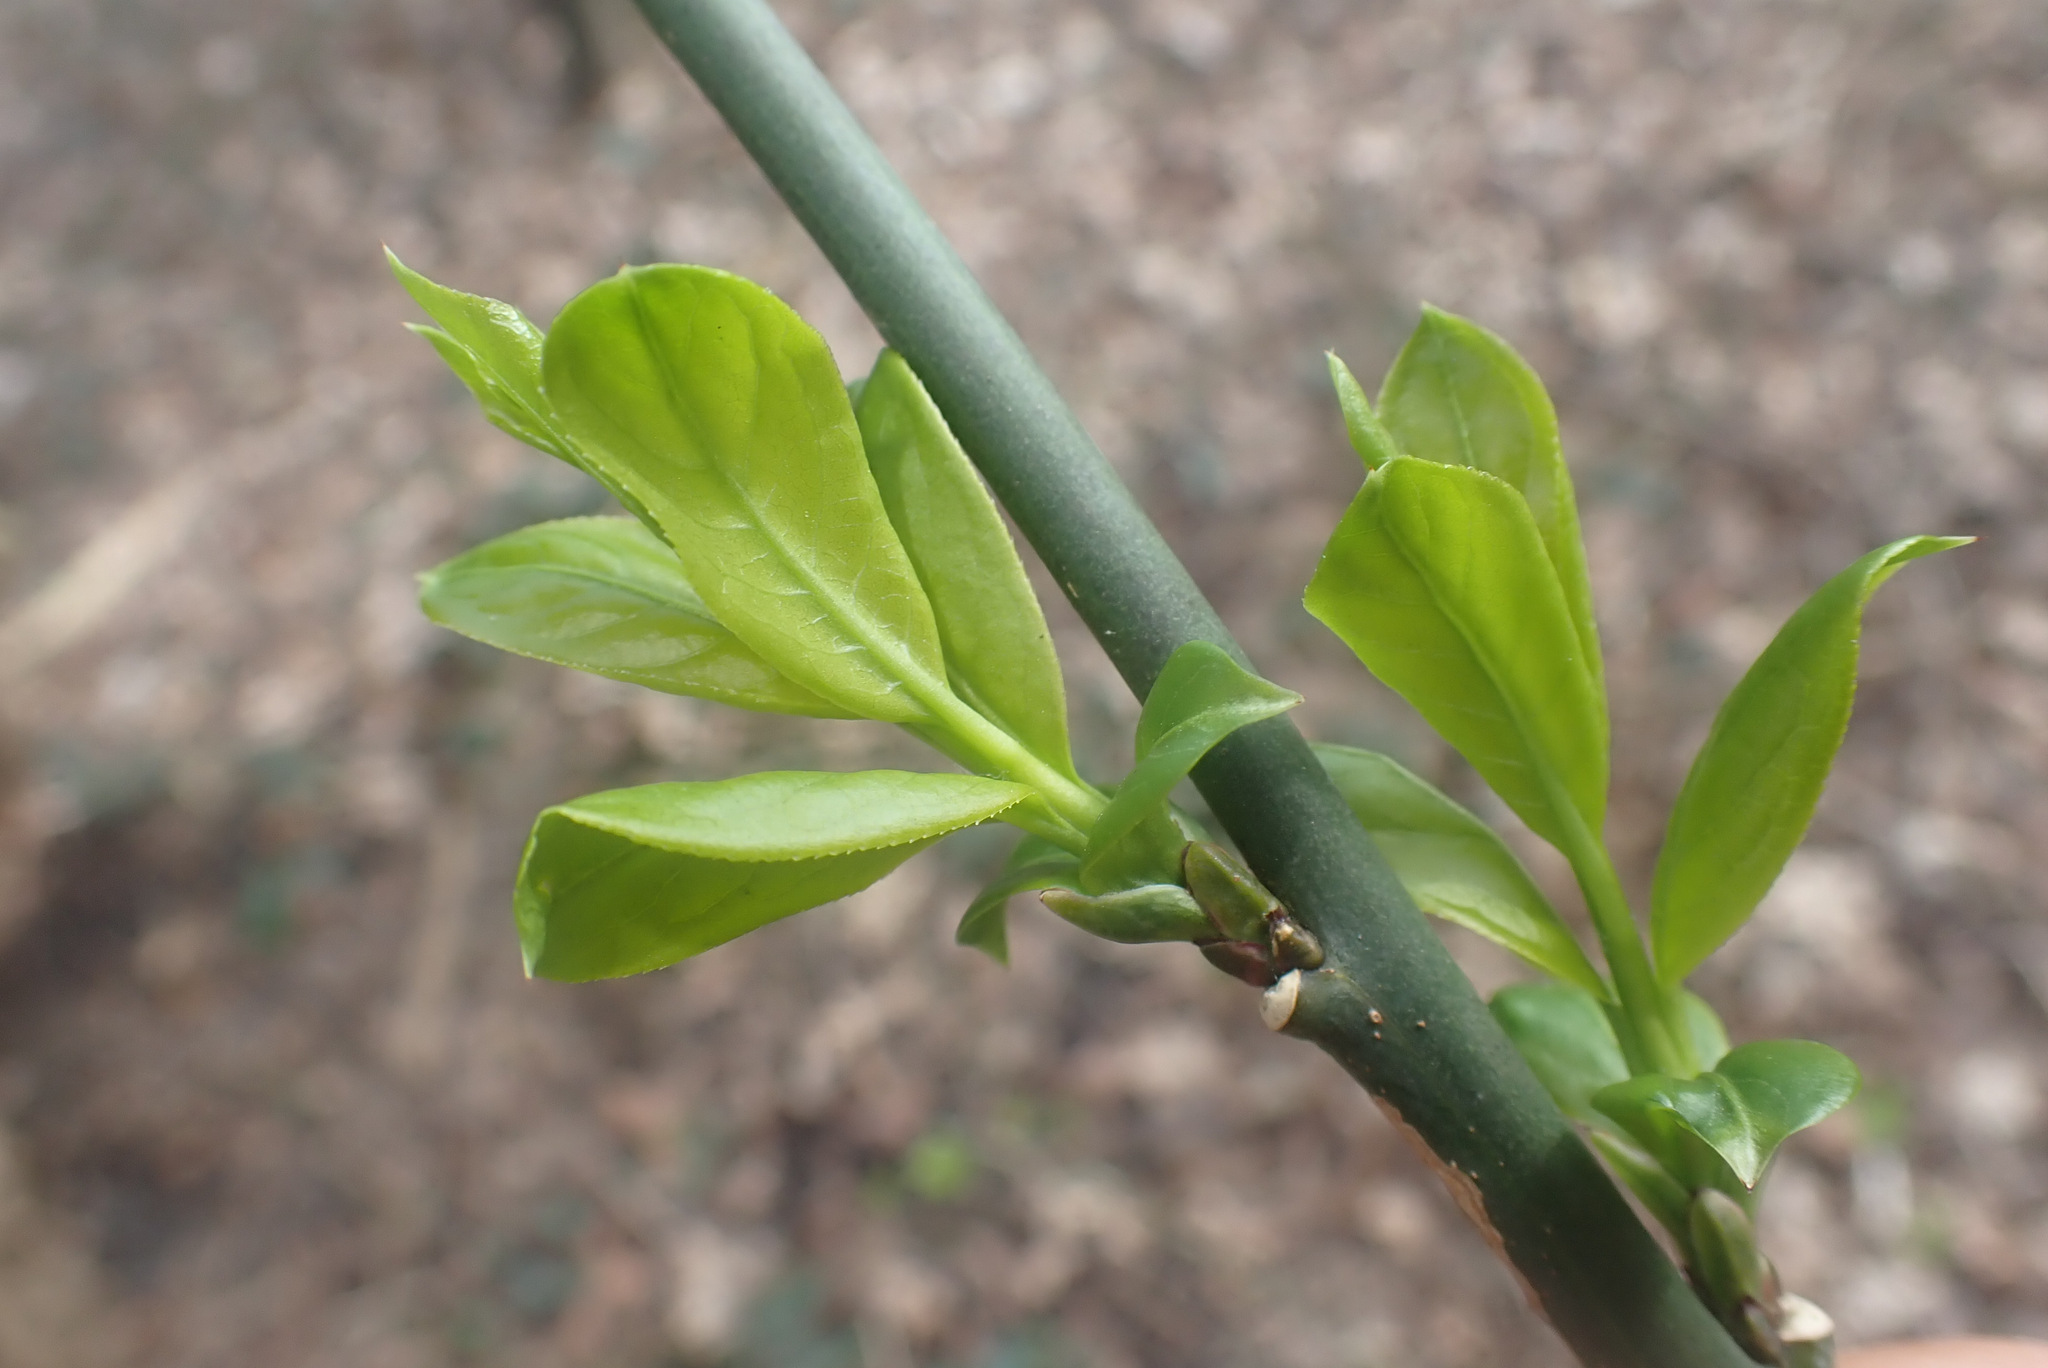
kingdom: Plantae
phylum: Tracheophyta
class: Magnoliopsida
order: Celastrales
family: Celastraceae
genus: Euonymus
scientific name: Euonymus europaeus
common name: Spindle
